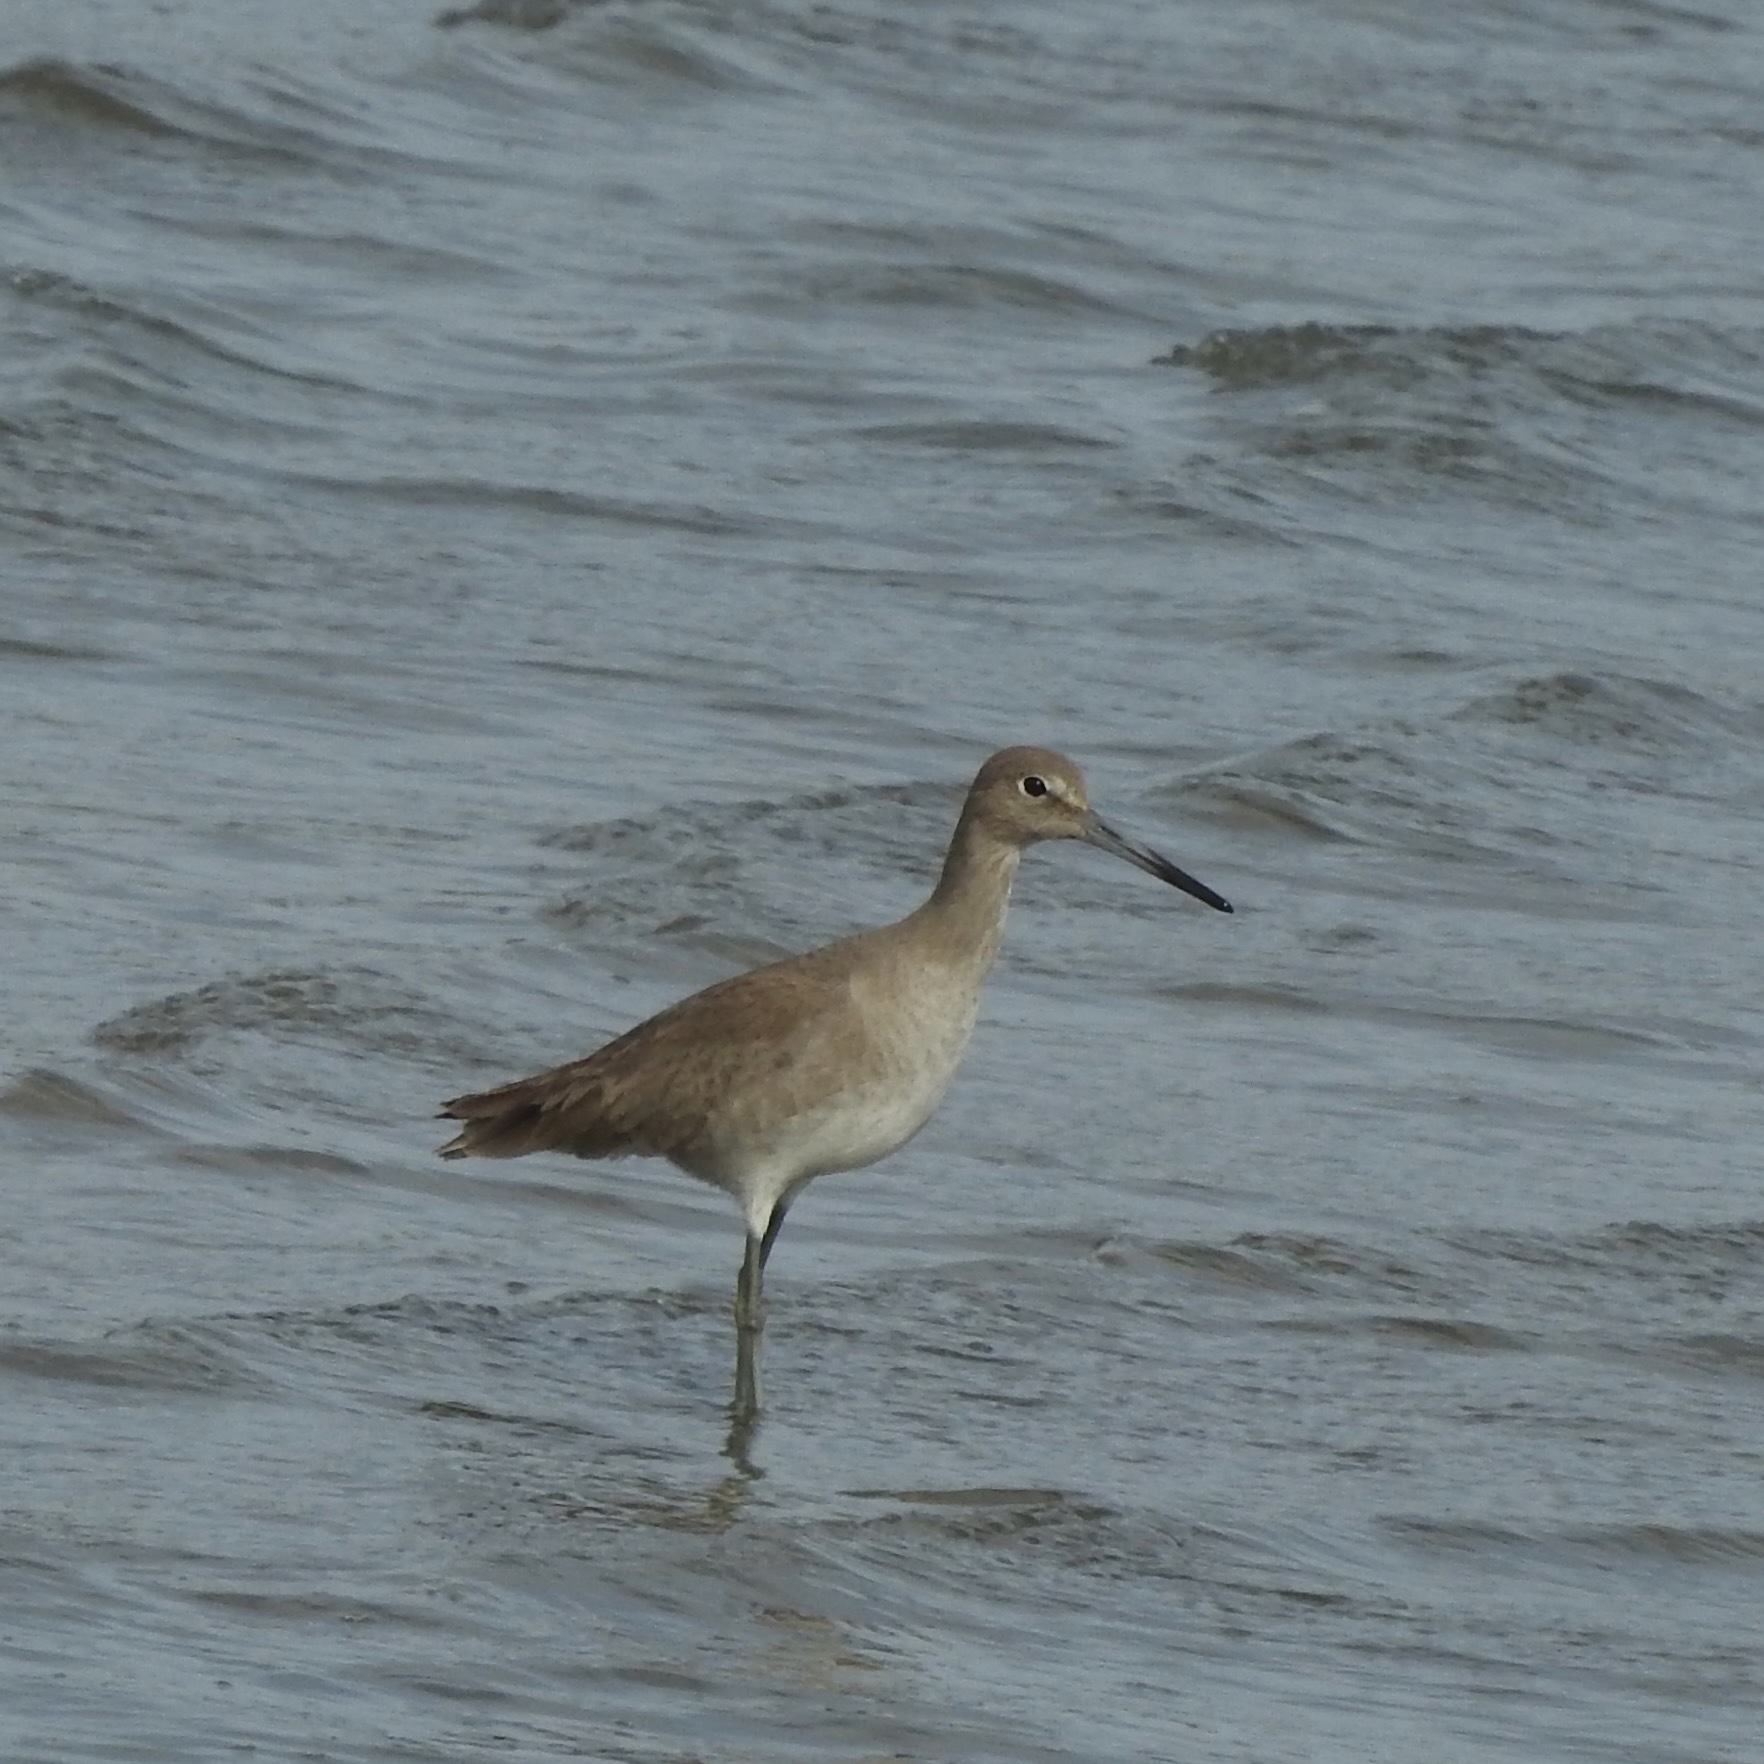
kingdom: Animalia
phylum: Chordata
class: Aves
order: Charadriiformes
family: Scolopacidae
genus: Tringa
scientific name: Tringa semipalmata
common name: Willet
